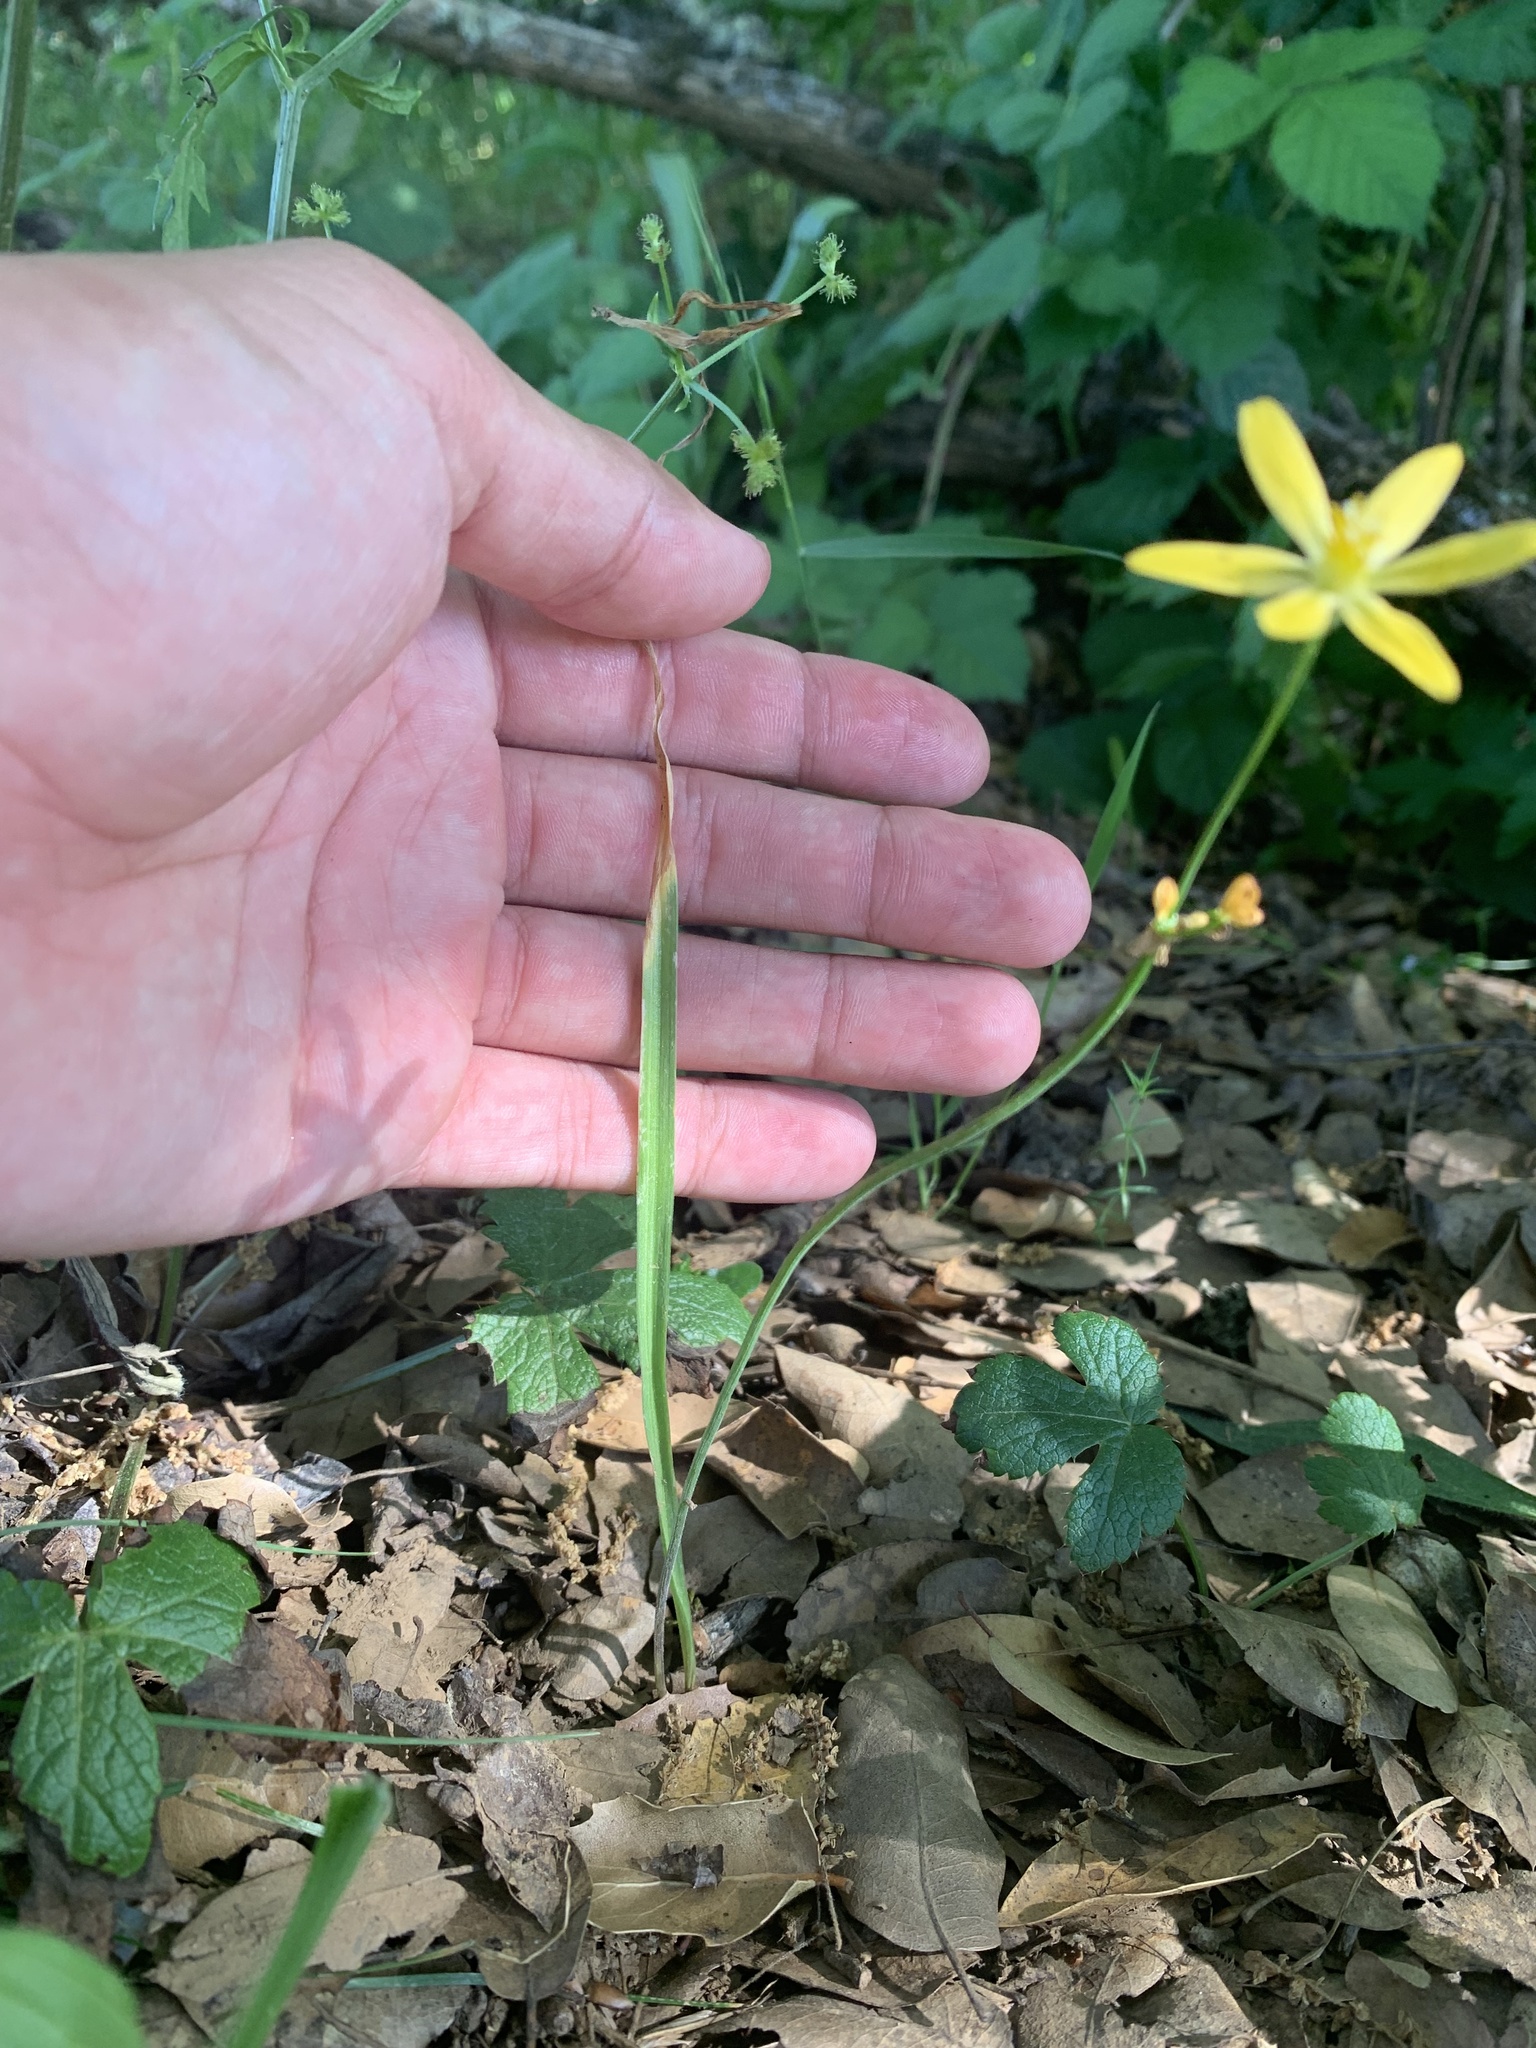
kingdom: Plantae
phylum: Tracheophyta
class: Liliopsida
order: Asparagales
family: Asparagaceae
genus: Triteleia
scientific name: Triteleia ixioides
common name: Yellow-brodiaea
